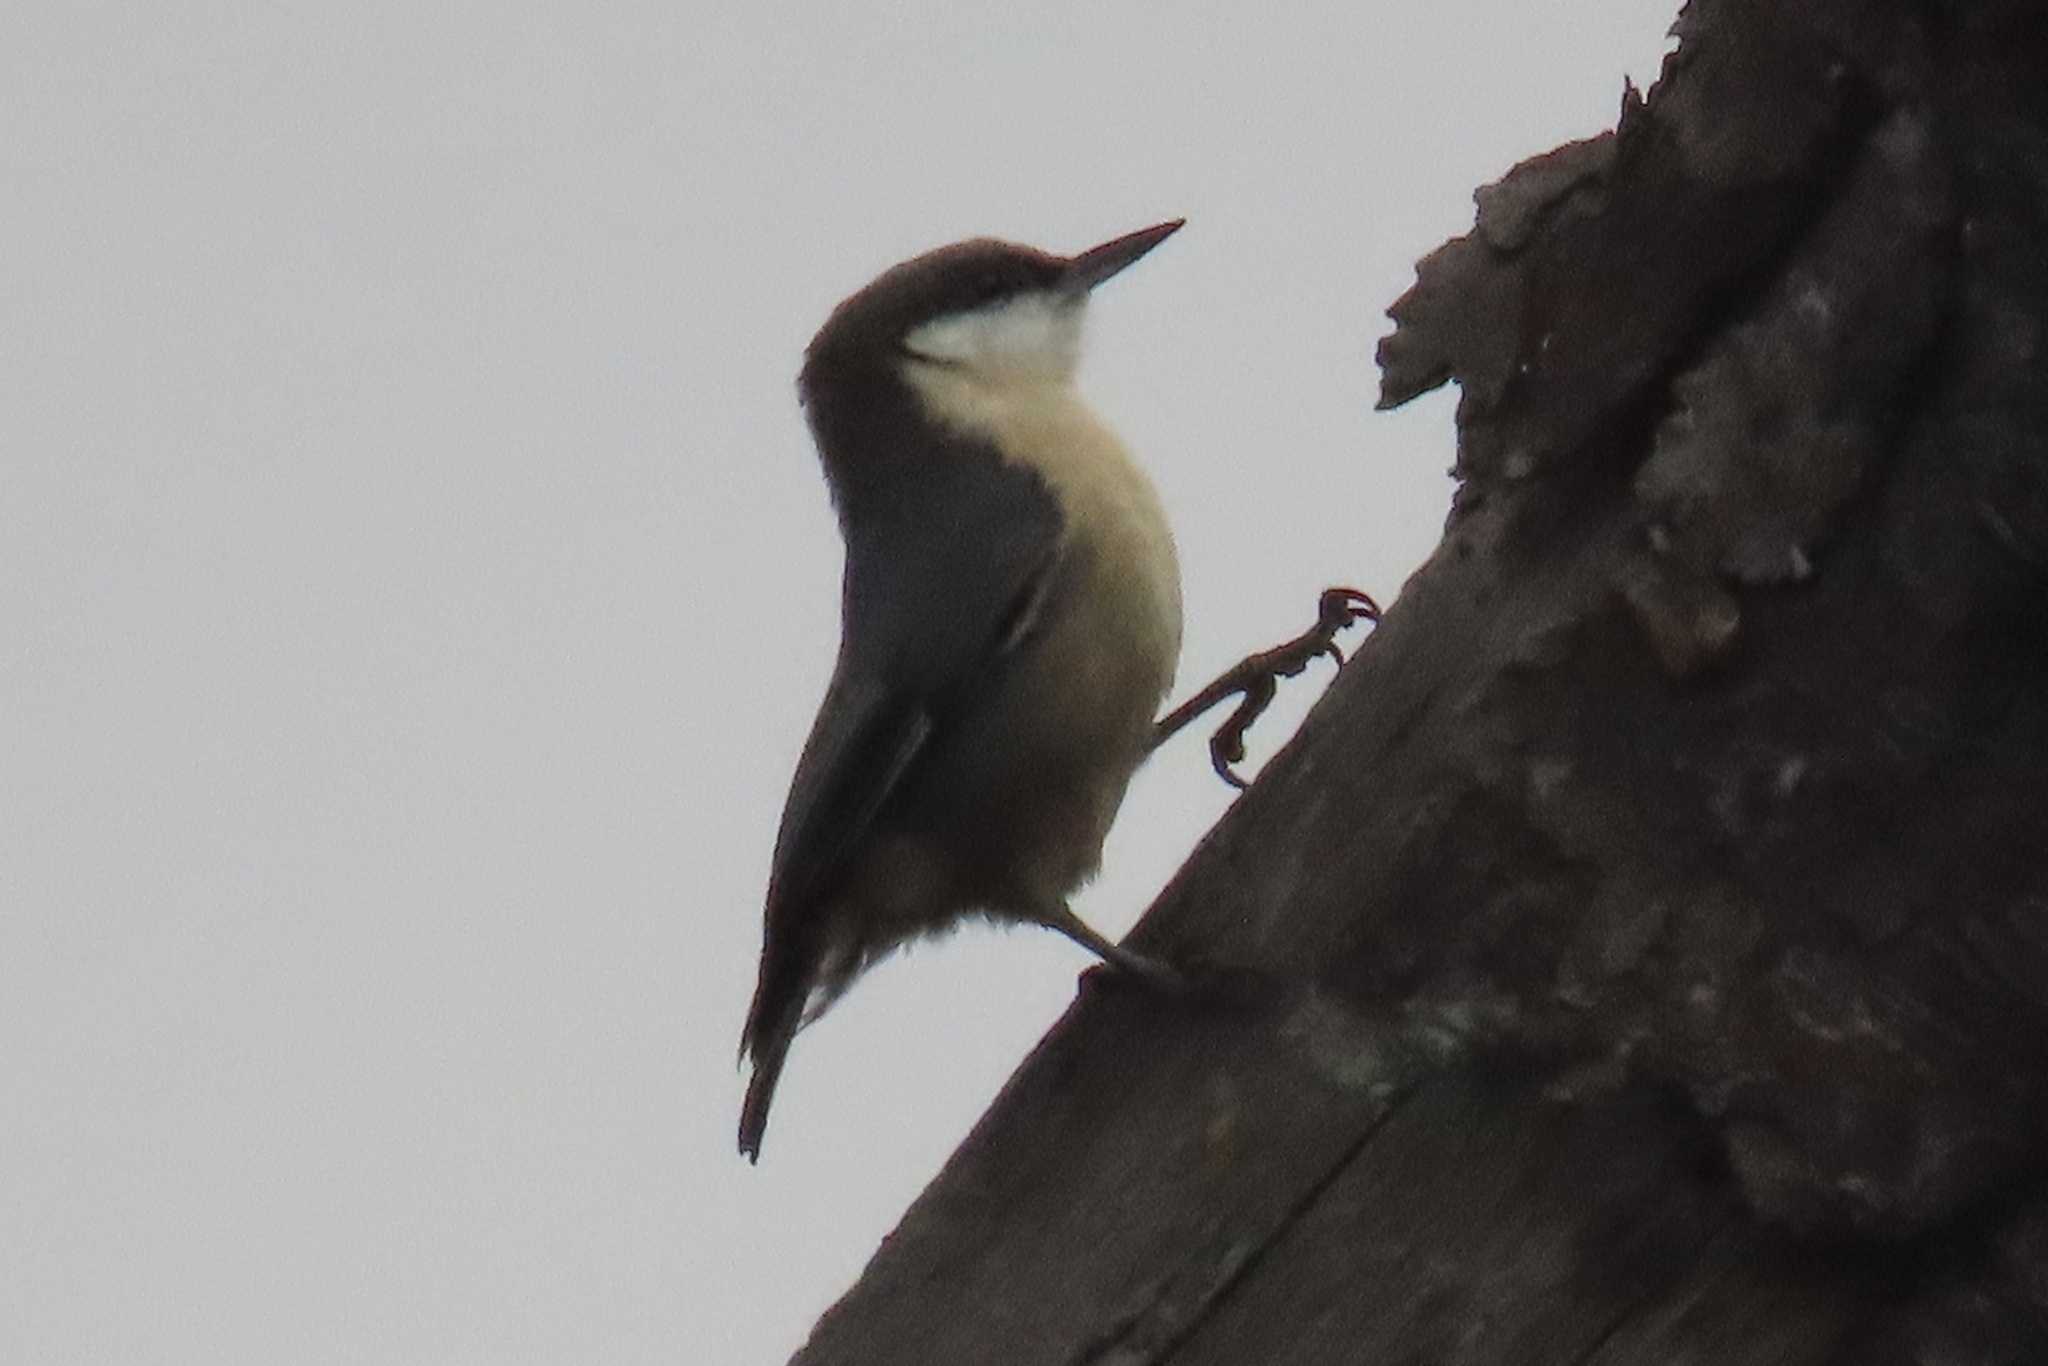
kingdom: Animalia
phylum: Chordata
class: Aves
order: Passeriformes
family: Sittidae
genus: Sitta
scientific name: Sitta pygmaea
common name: Pygmy nuthatch
